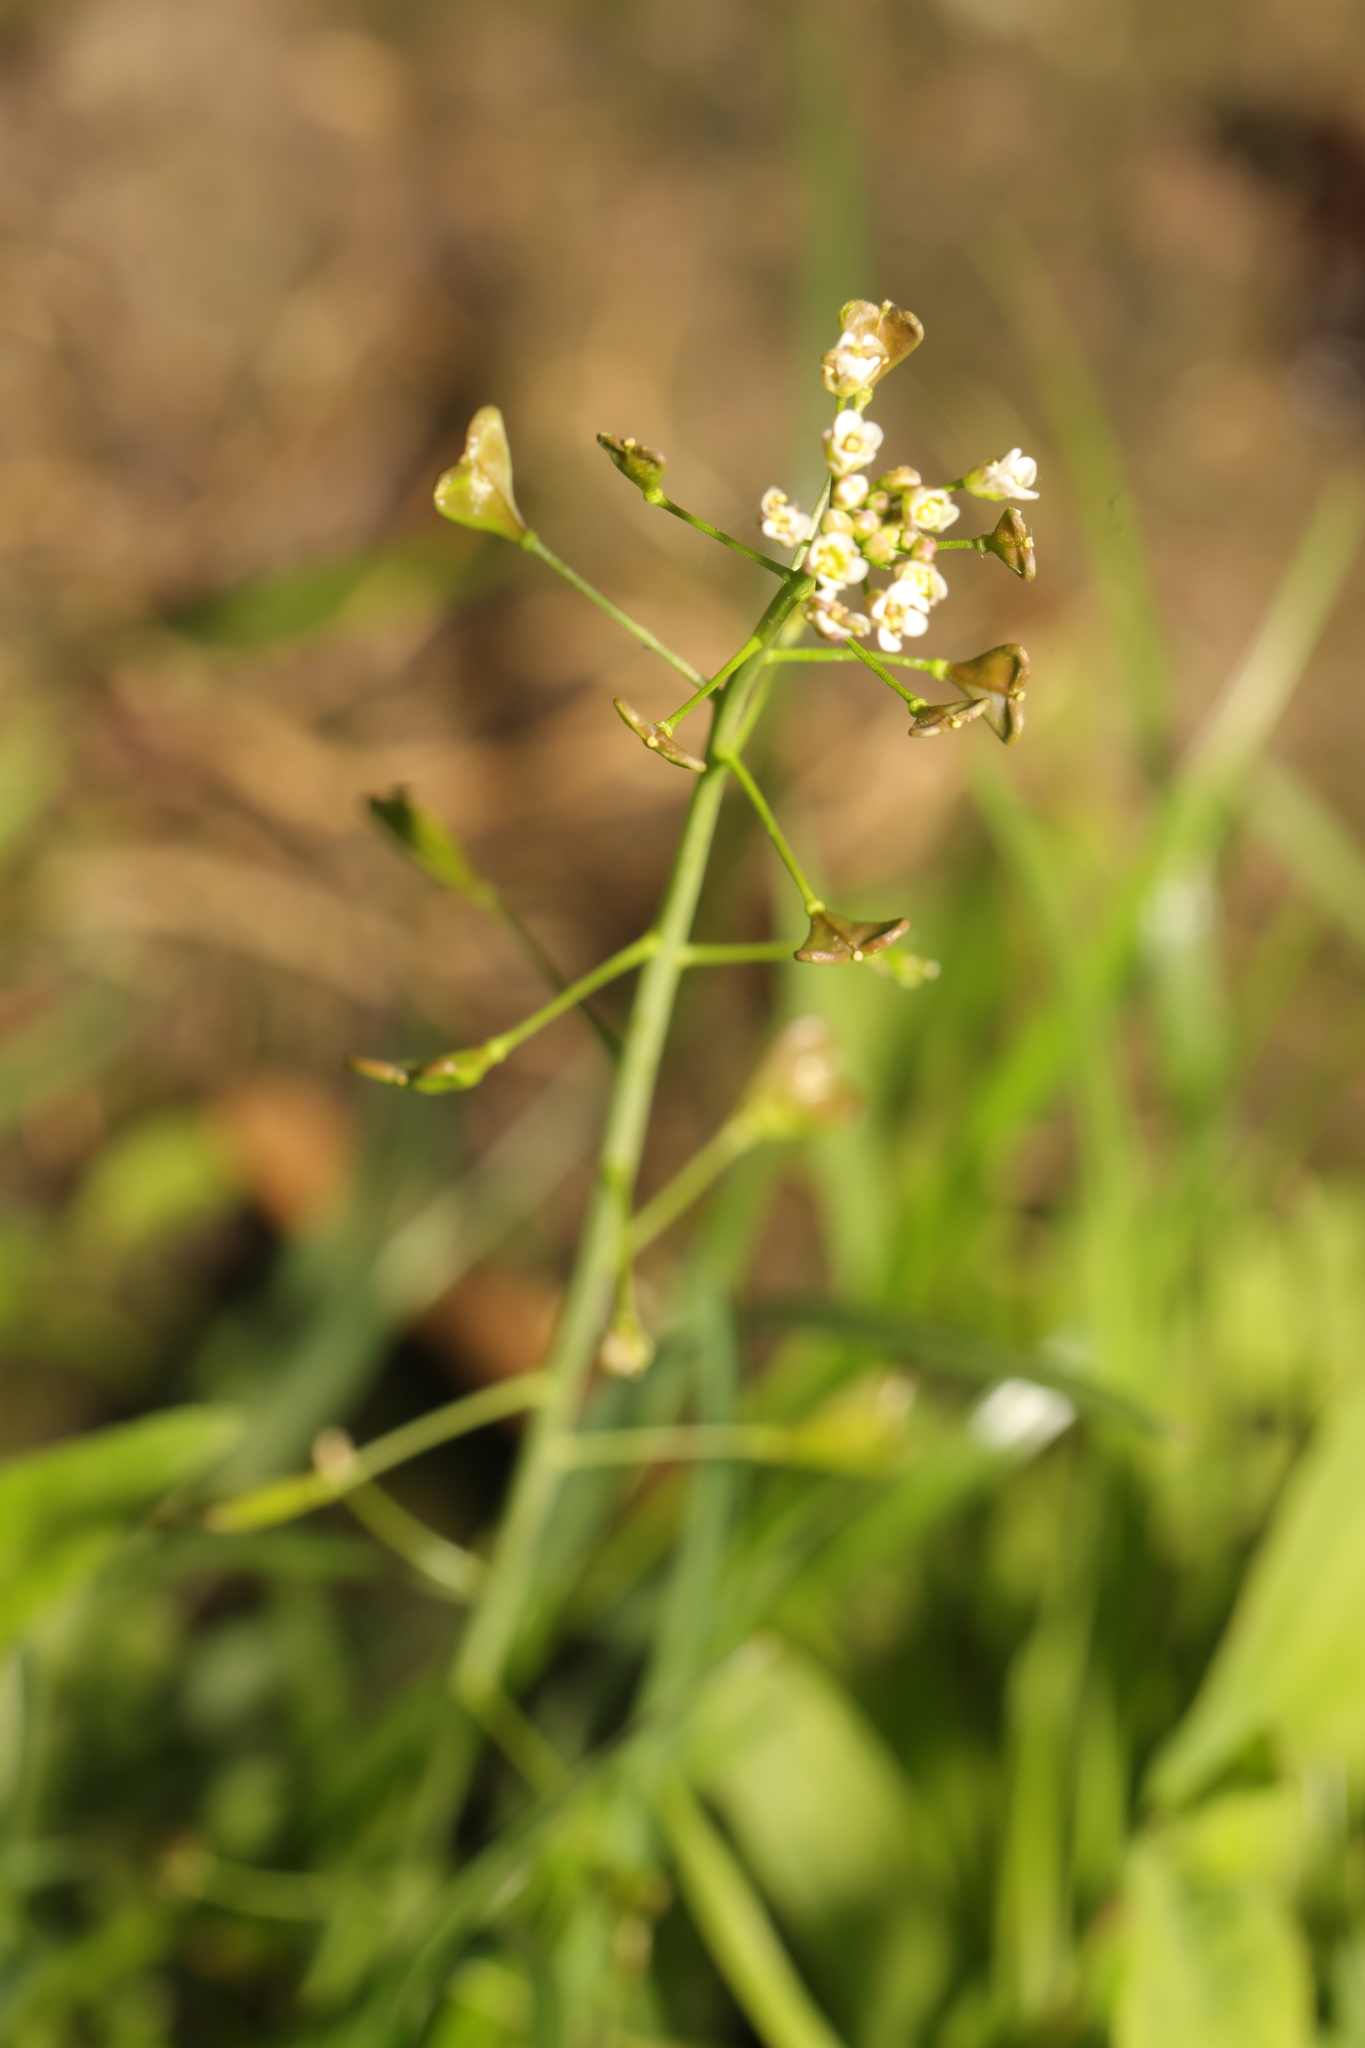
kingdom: Plantae
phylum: Tracheophyta
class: Magnoliopsida
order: Brassicales
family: Brassicaceae
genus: Capsella
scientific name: Capsella bursa-pastoris
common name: Shepherd's purse
